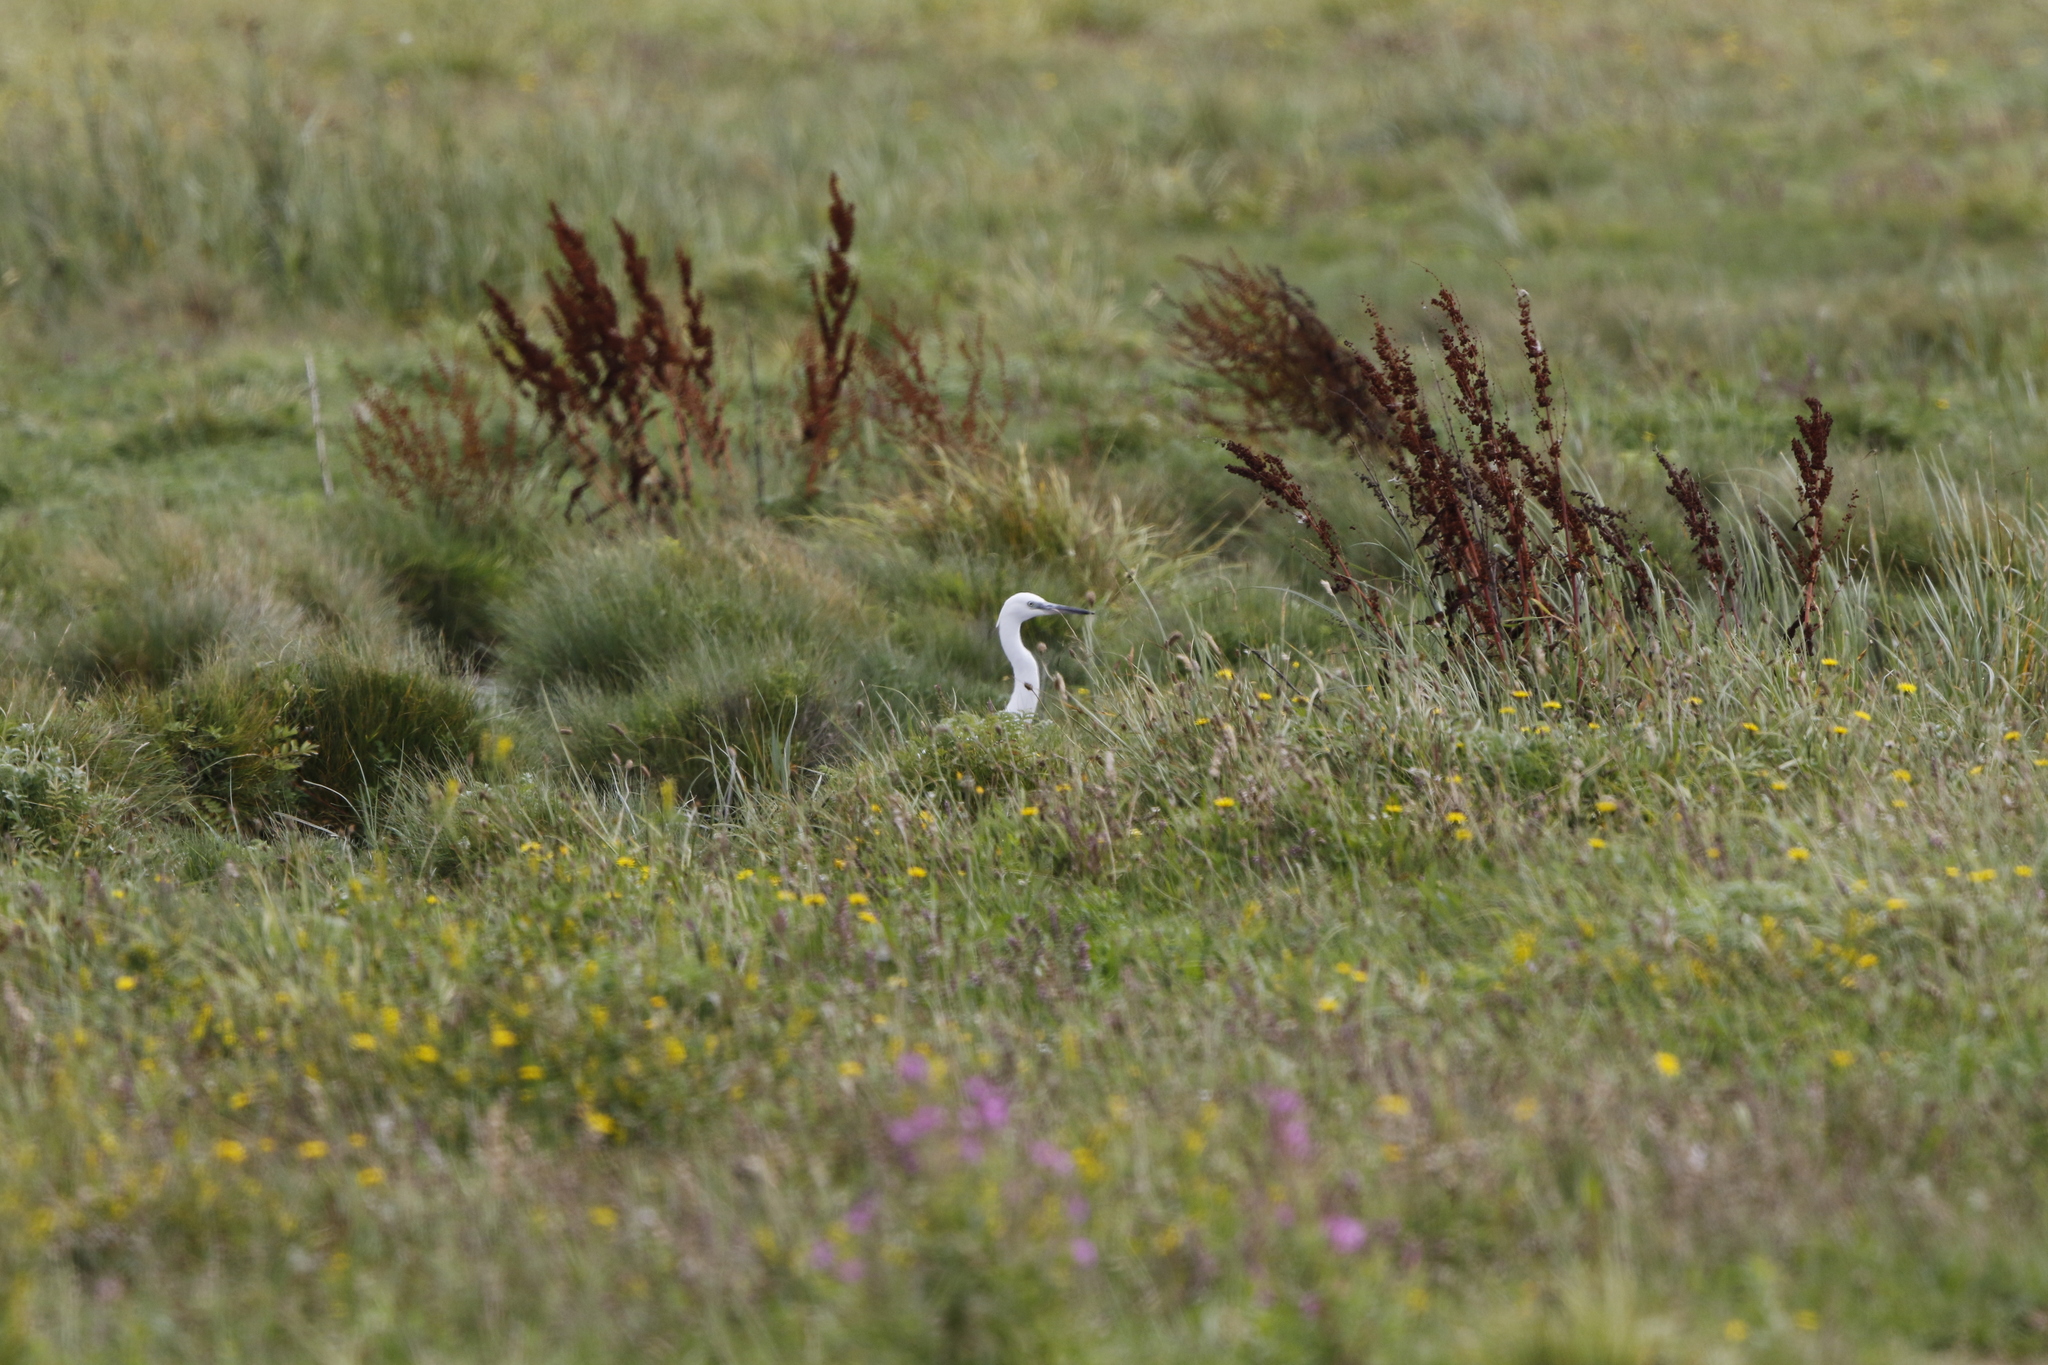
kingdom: Animalia
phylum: Chordata
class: Aves
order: Pelecaniformes
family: Ardeidae
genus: Egretta
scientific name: Egretta garzetta
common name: Little egret
